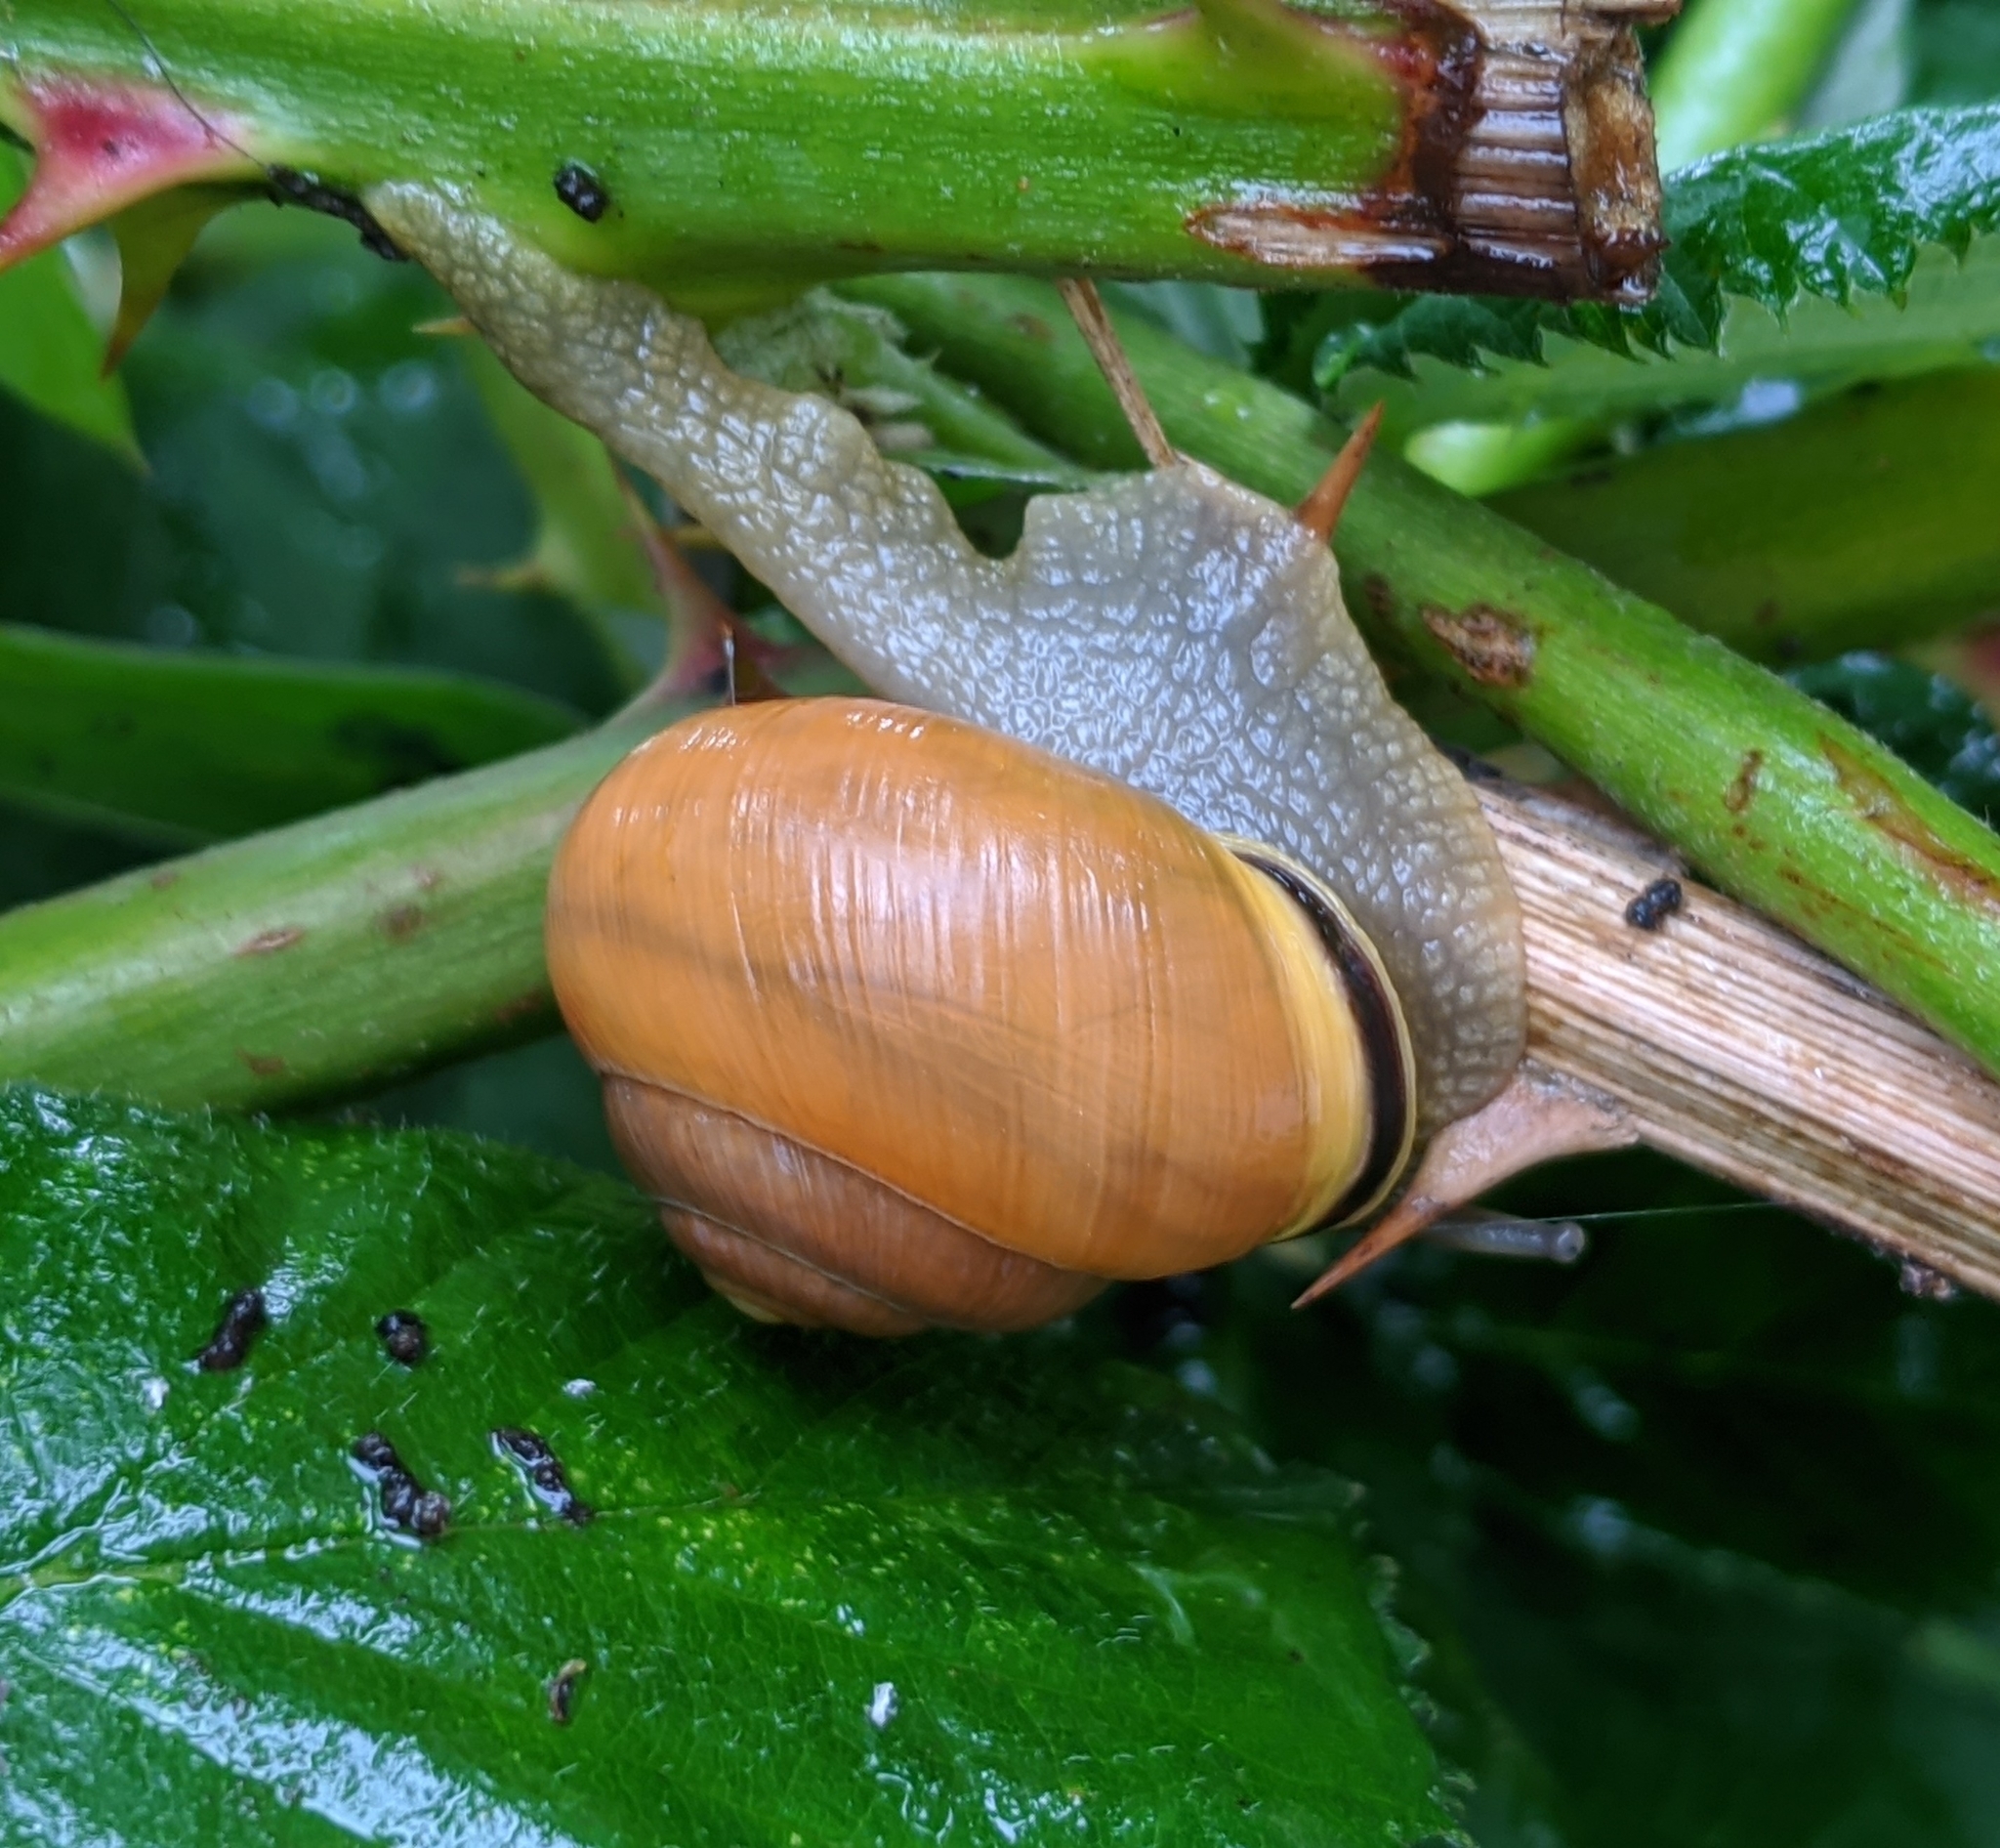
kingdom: Animalia
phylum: Mollusca
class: Gastropoda
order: Stylommatophora
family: Helicidae
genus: Cepaea
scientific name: Cepaea nemoralis
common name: Grovesnail
